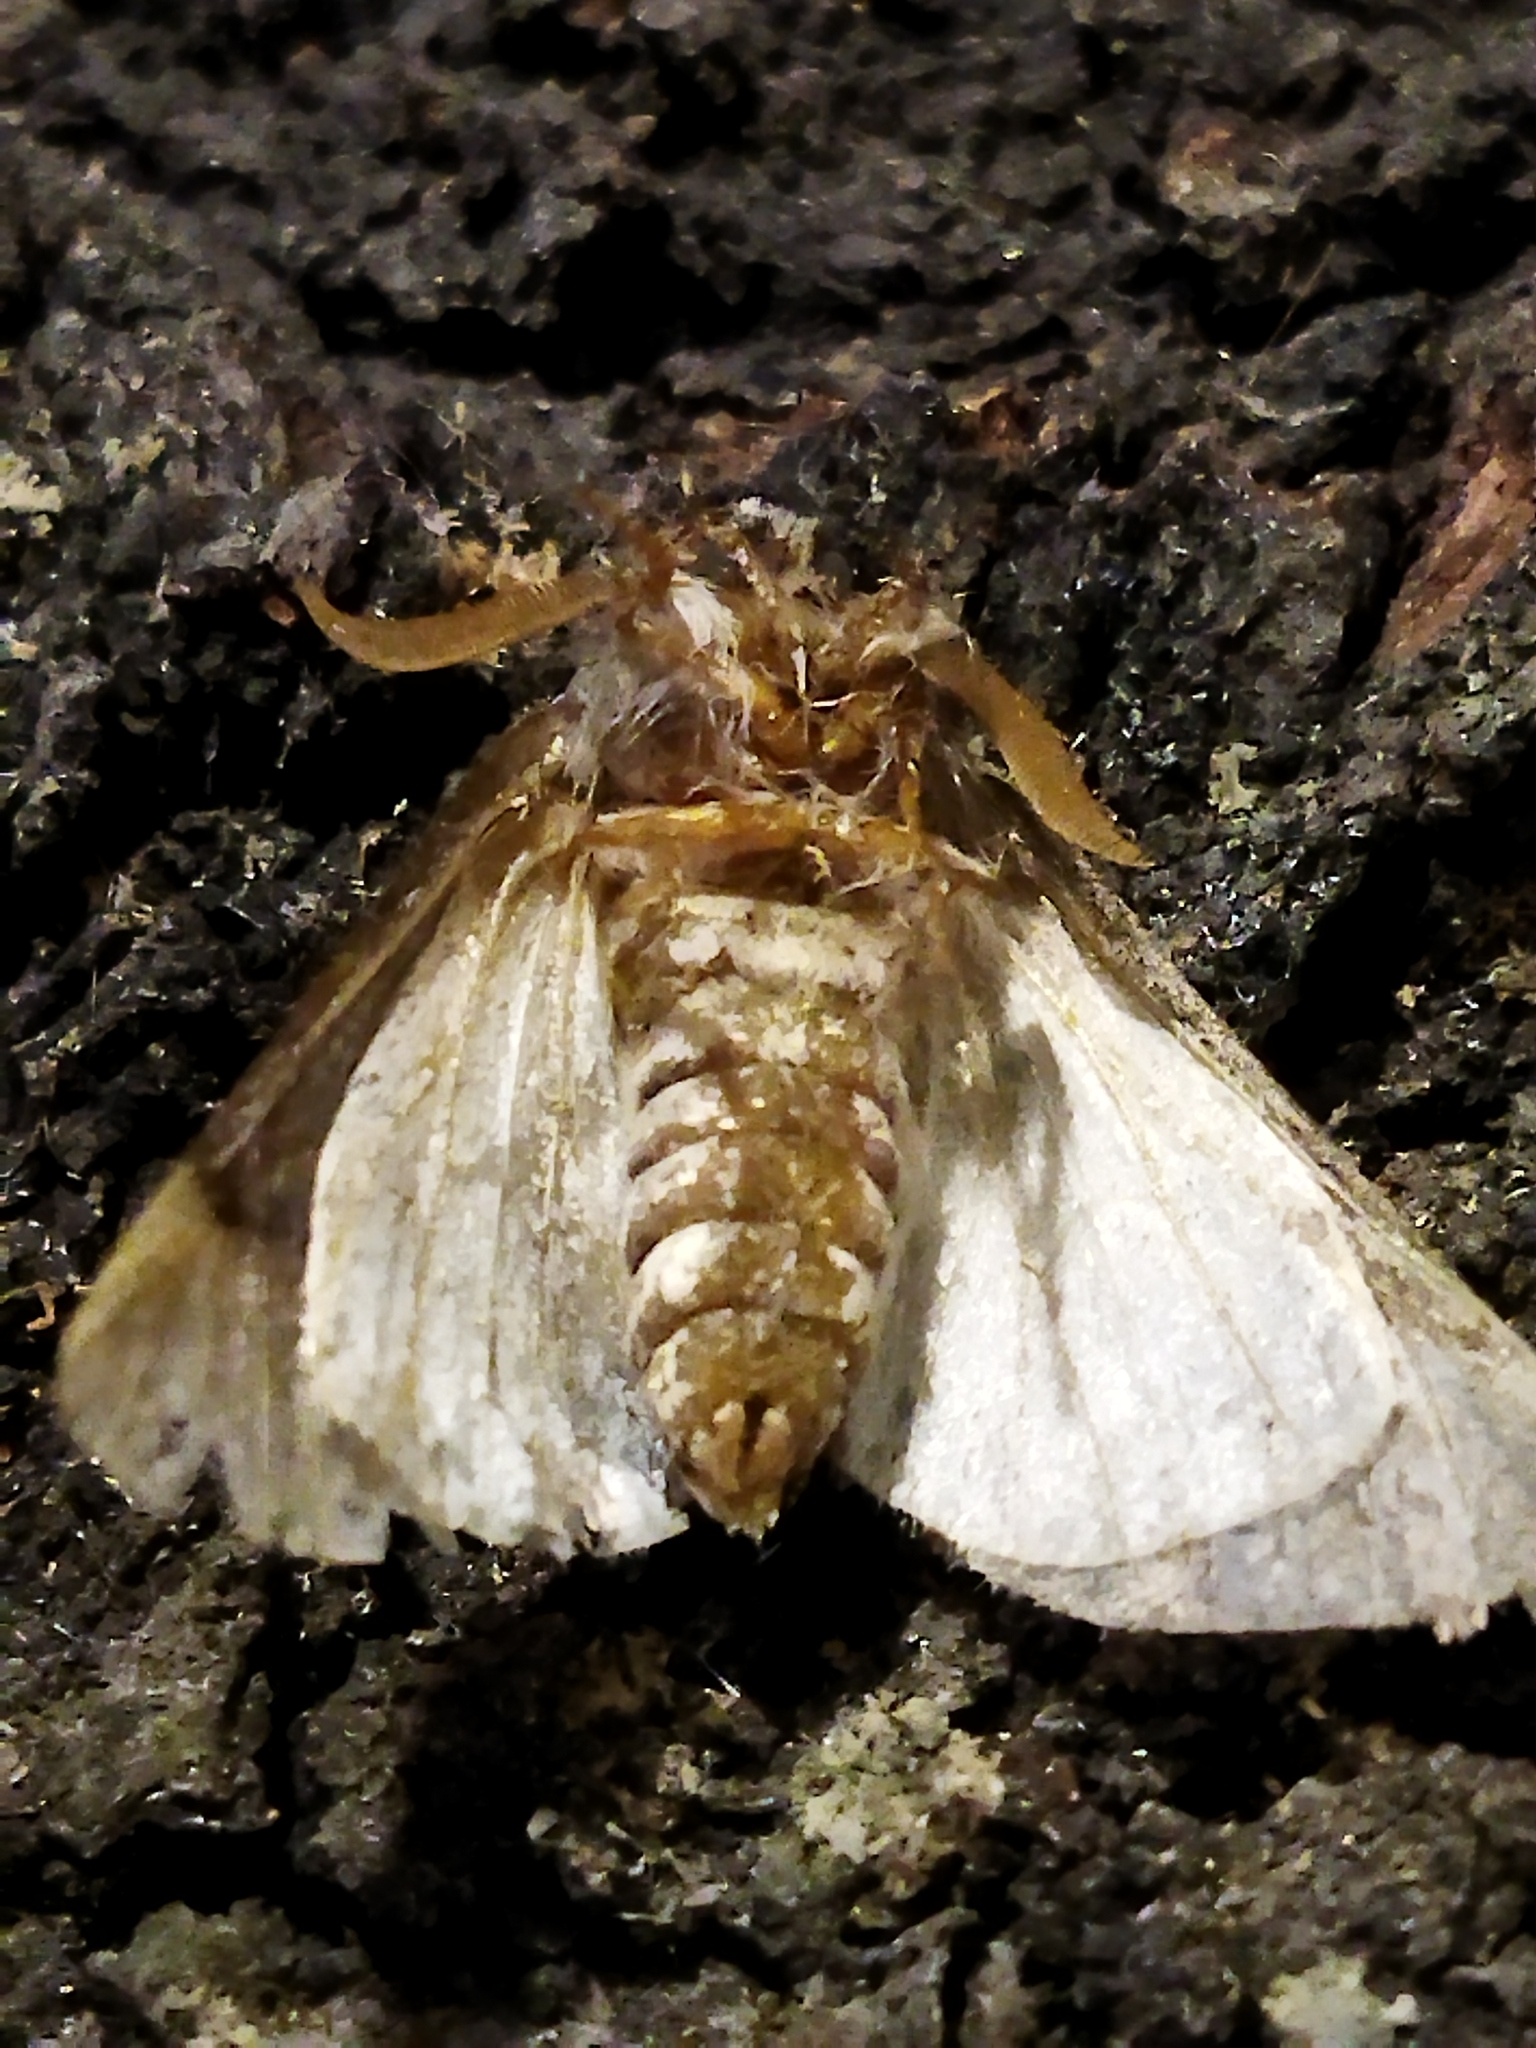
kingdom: Animalia
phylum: Arthropoda
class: Insecta
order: Lepidoptera
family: Notodontidae
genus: Thaumetopoea
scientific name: Thaumetopoea pityocampa
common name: Pine processionary
